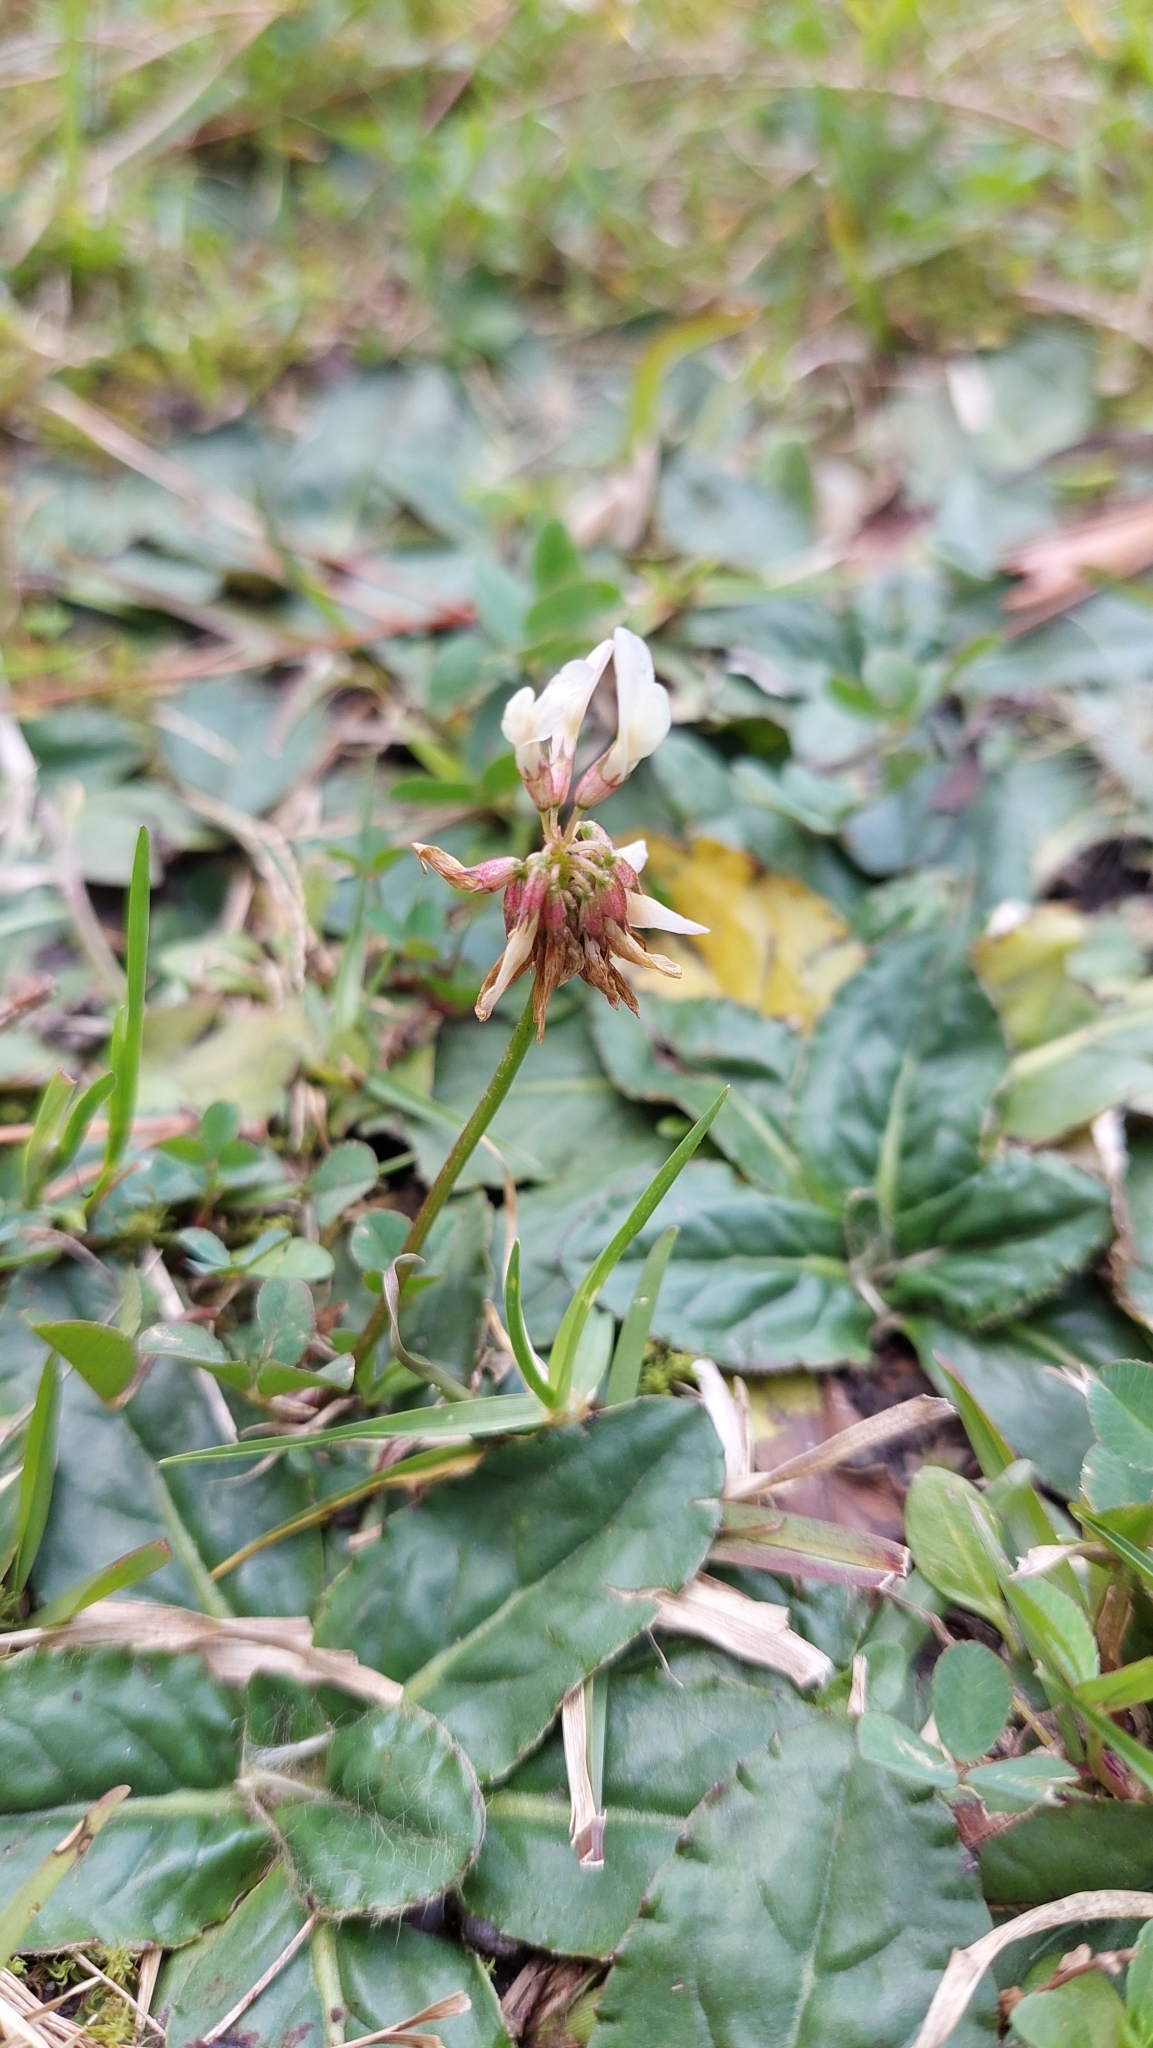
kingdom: Plantae
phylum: Tracheophyta
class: Magnoliopsida
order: Fabales
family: Fabaceae
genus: Trifolium
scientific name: Trifolium repens
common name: White clover
